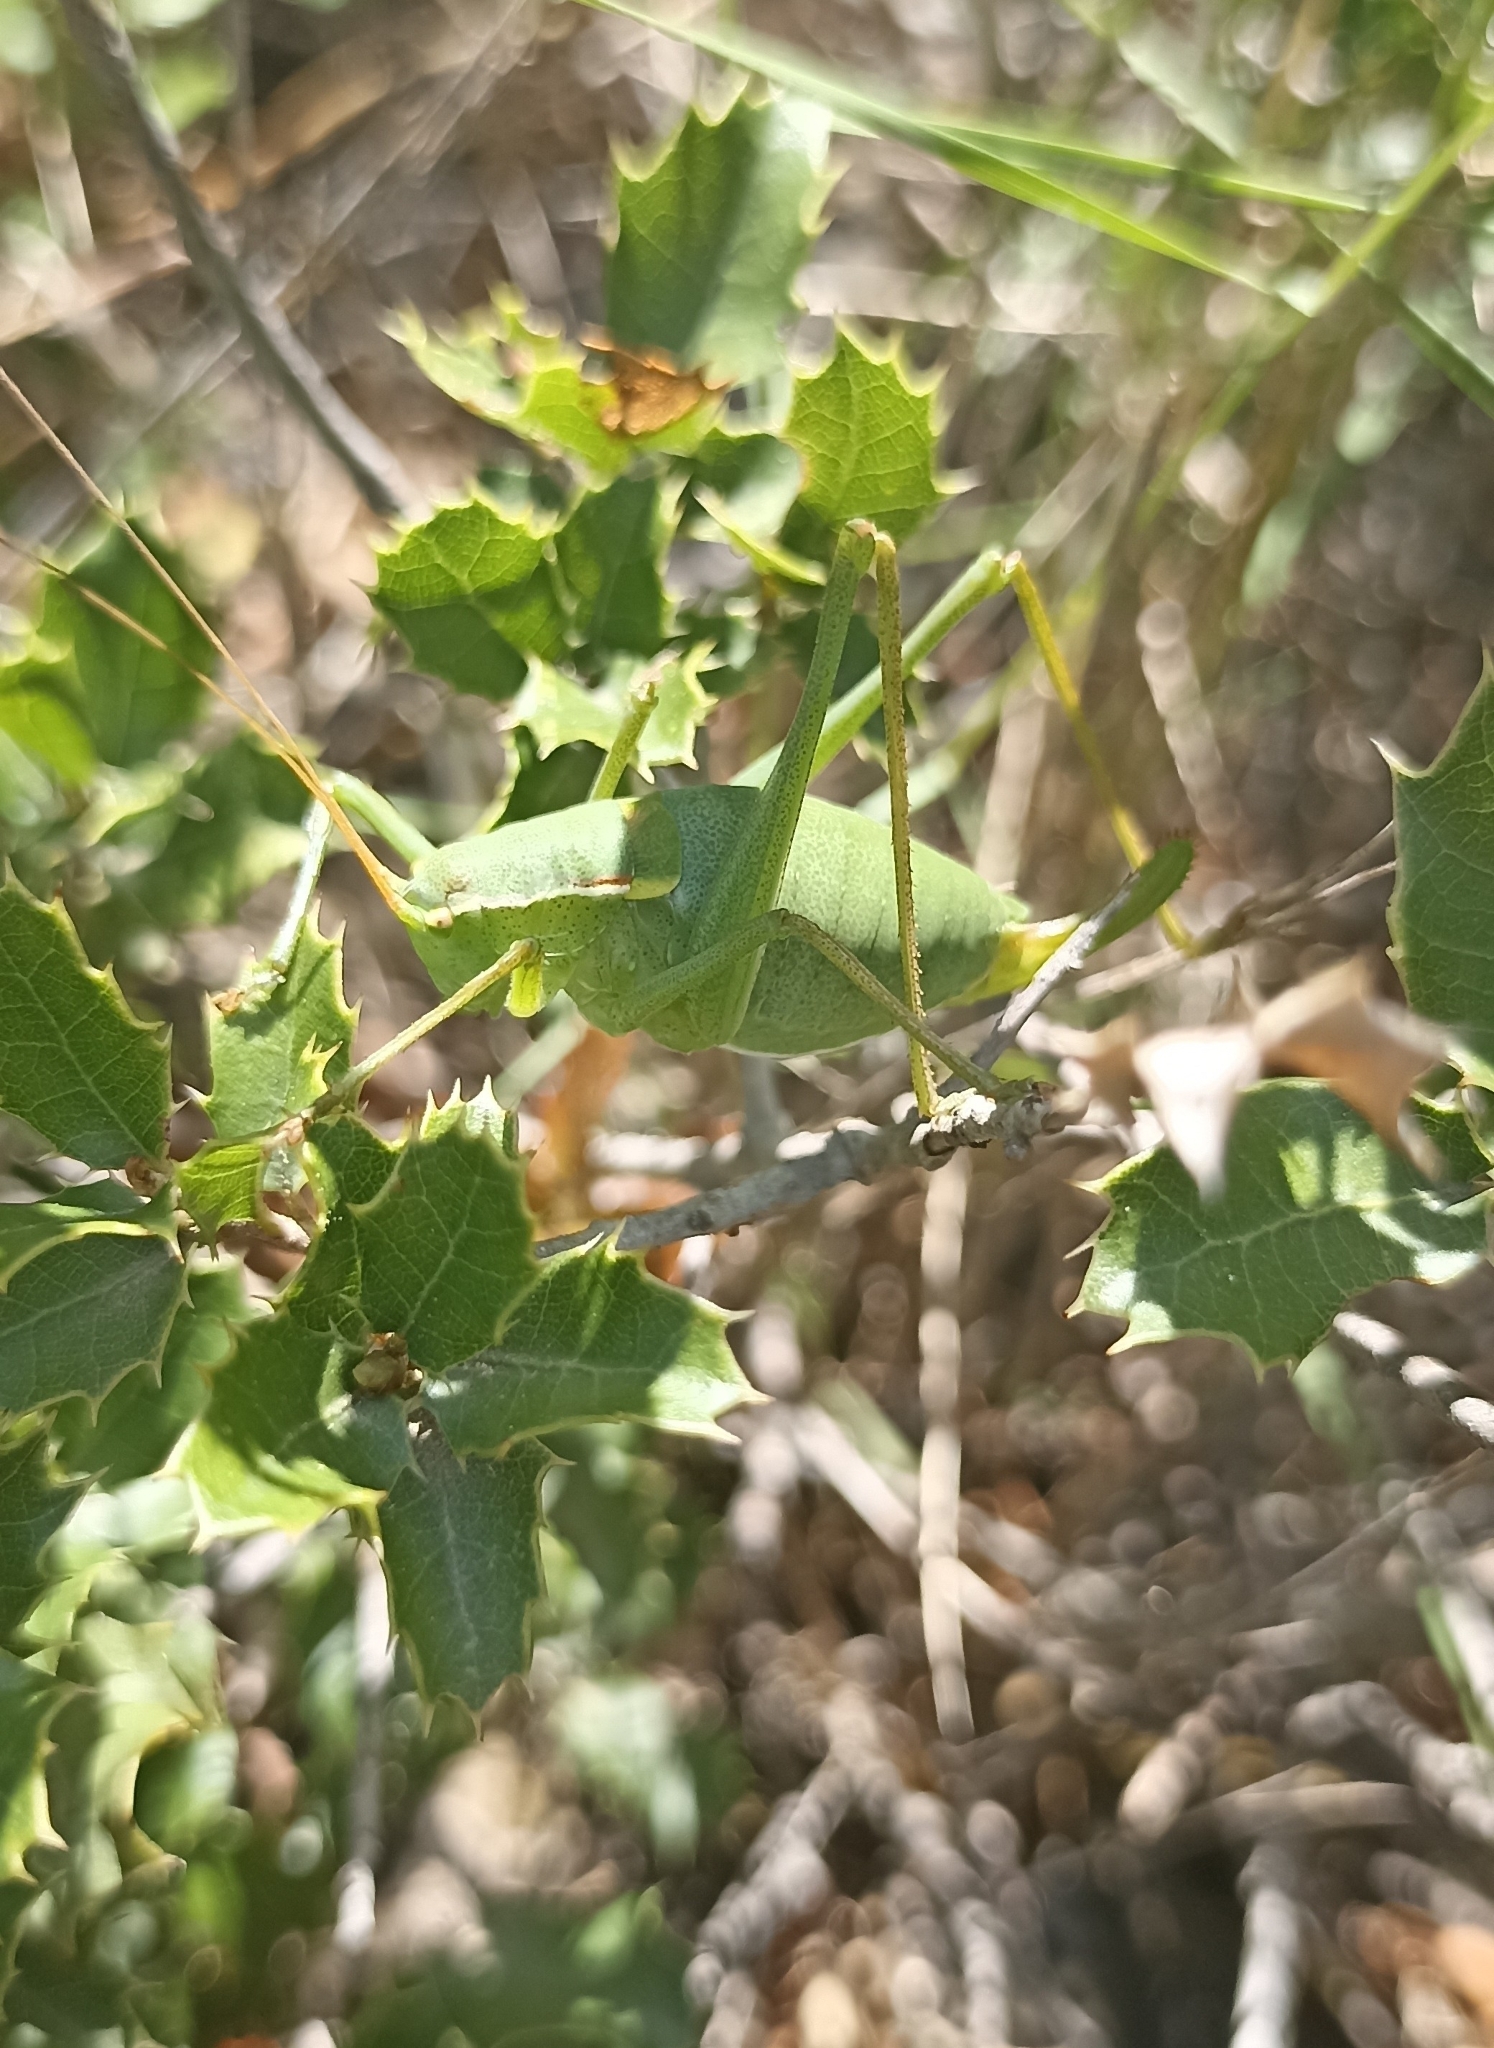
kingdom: Animalia
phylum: Arthropoda
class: Insecta
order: Orthoptera
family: Tettigoniidae
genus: Isophya
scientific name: Isophya pyrenaea
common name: Pyrenean plump bush-cricket
